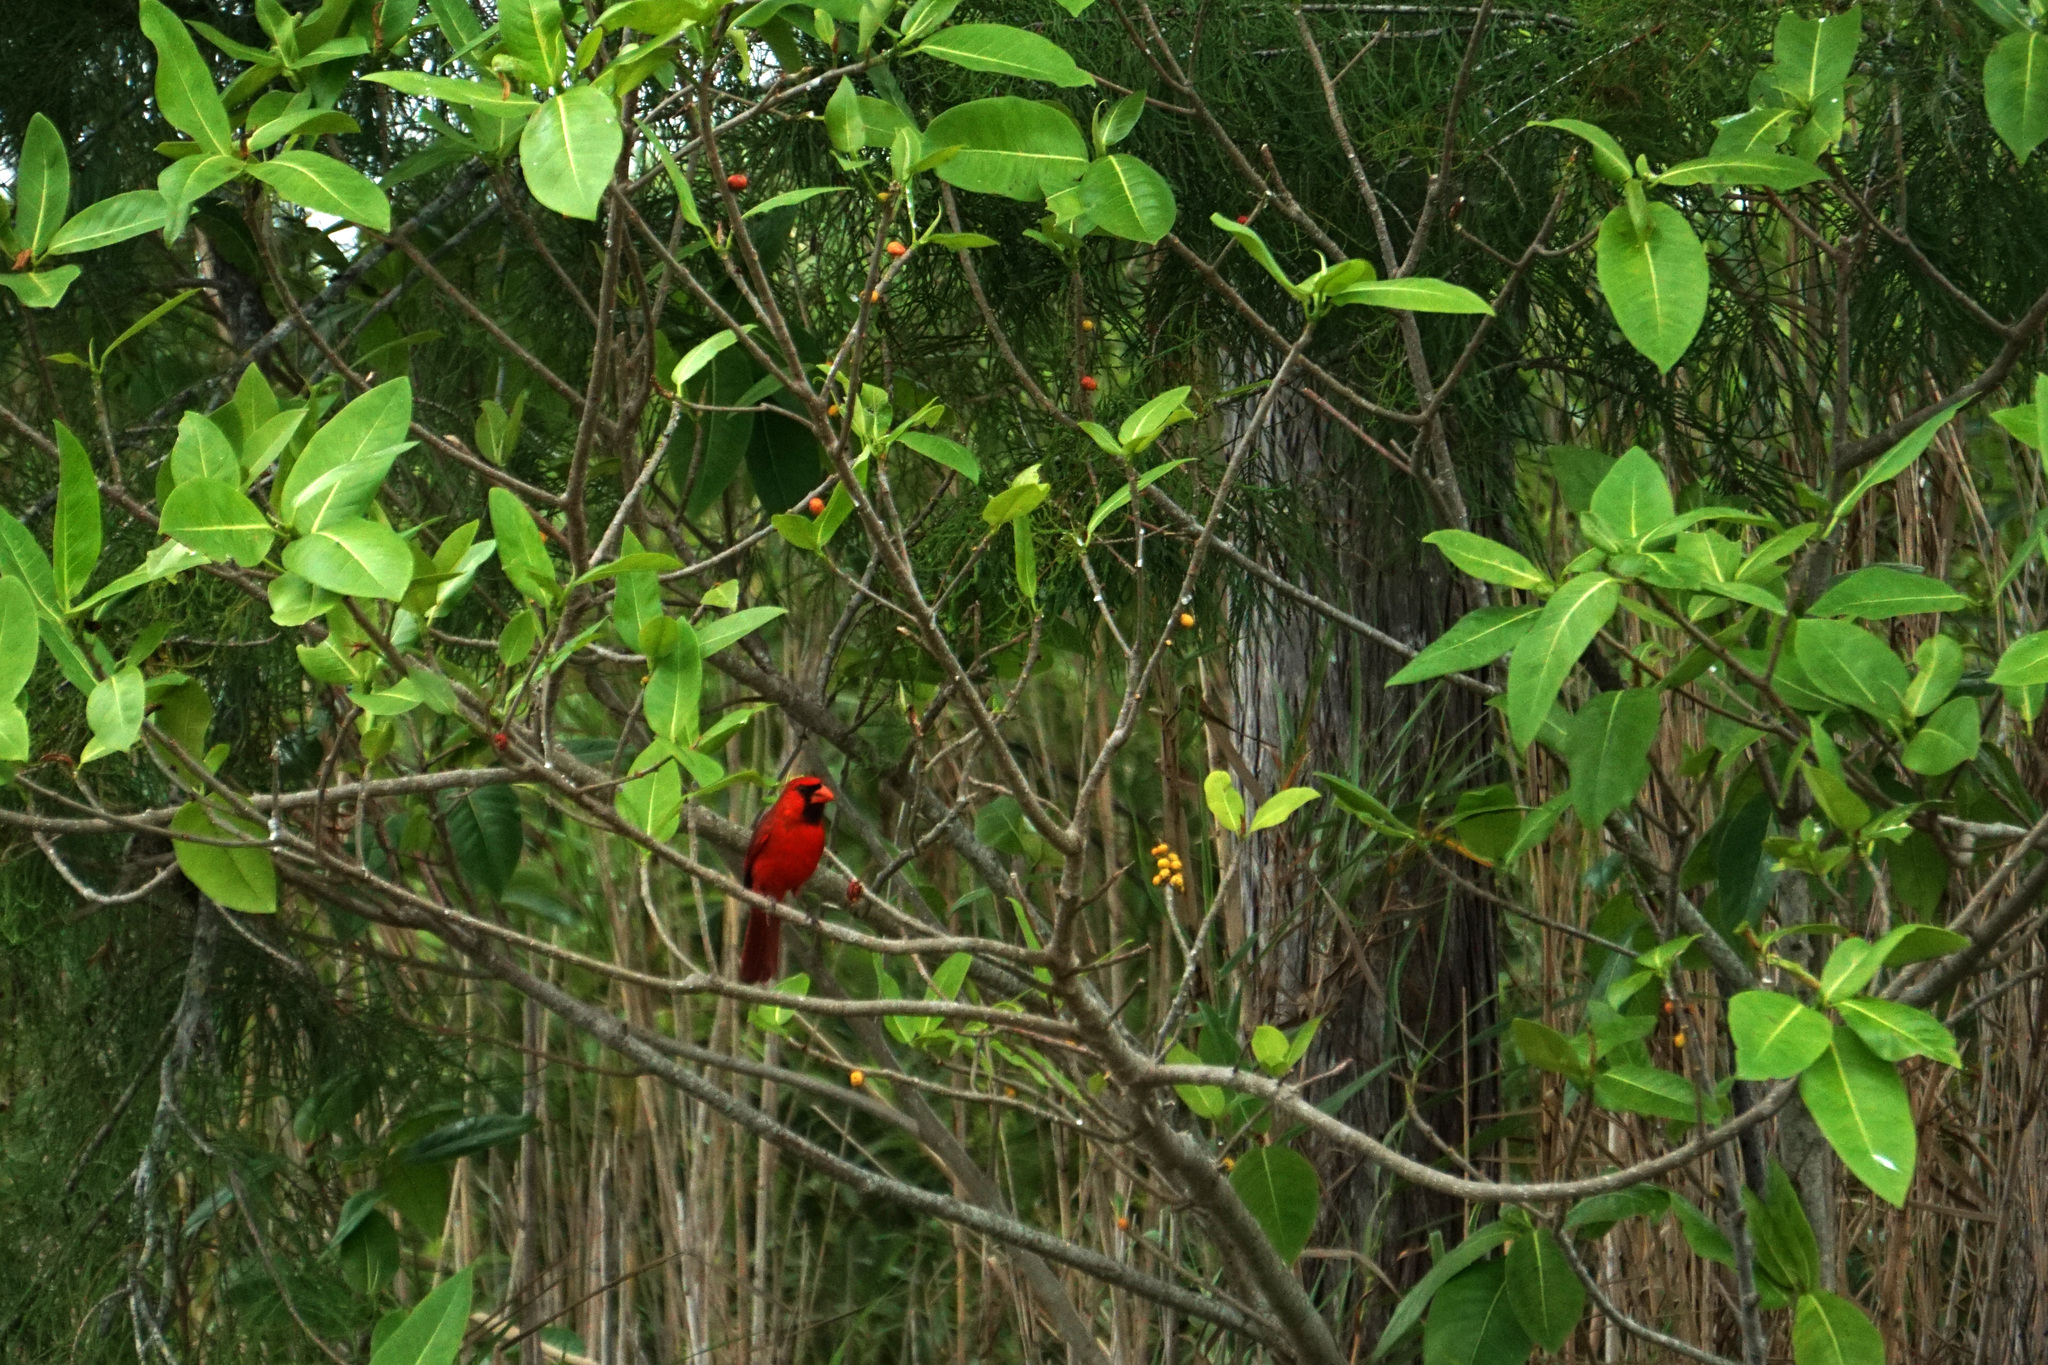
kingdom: Animalia
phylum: Chordata
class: Aves
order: Passeriformes
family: Cardinalidae
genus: Cardinalis
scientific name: Cardinalis cardinalis
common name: Northern cardinal
